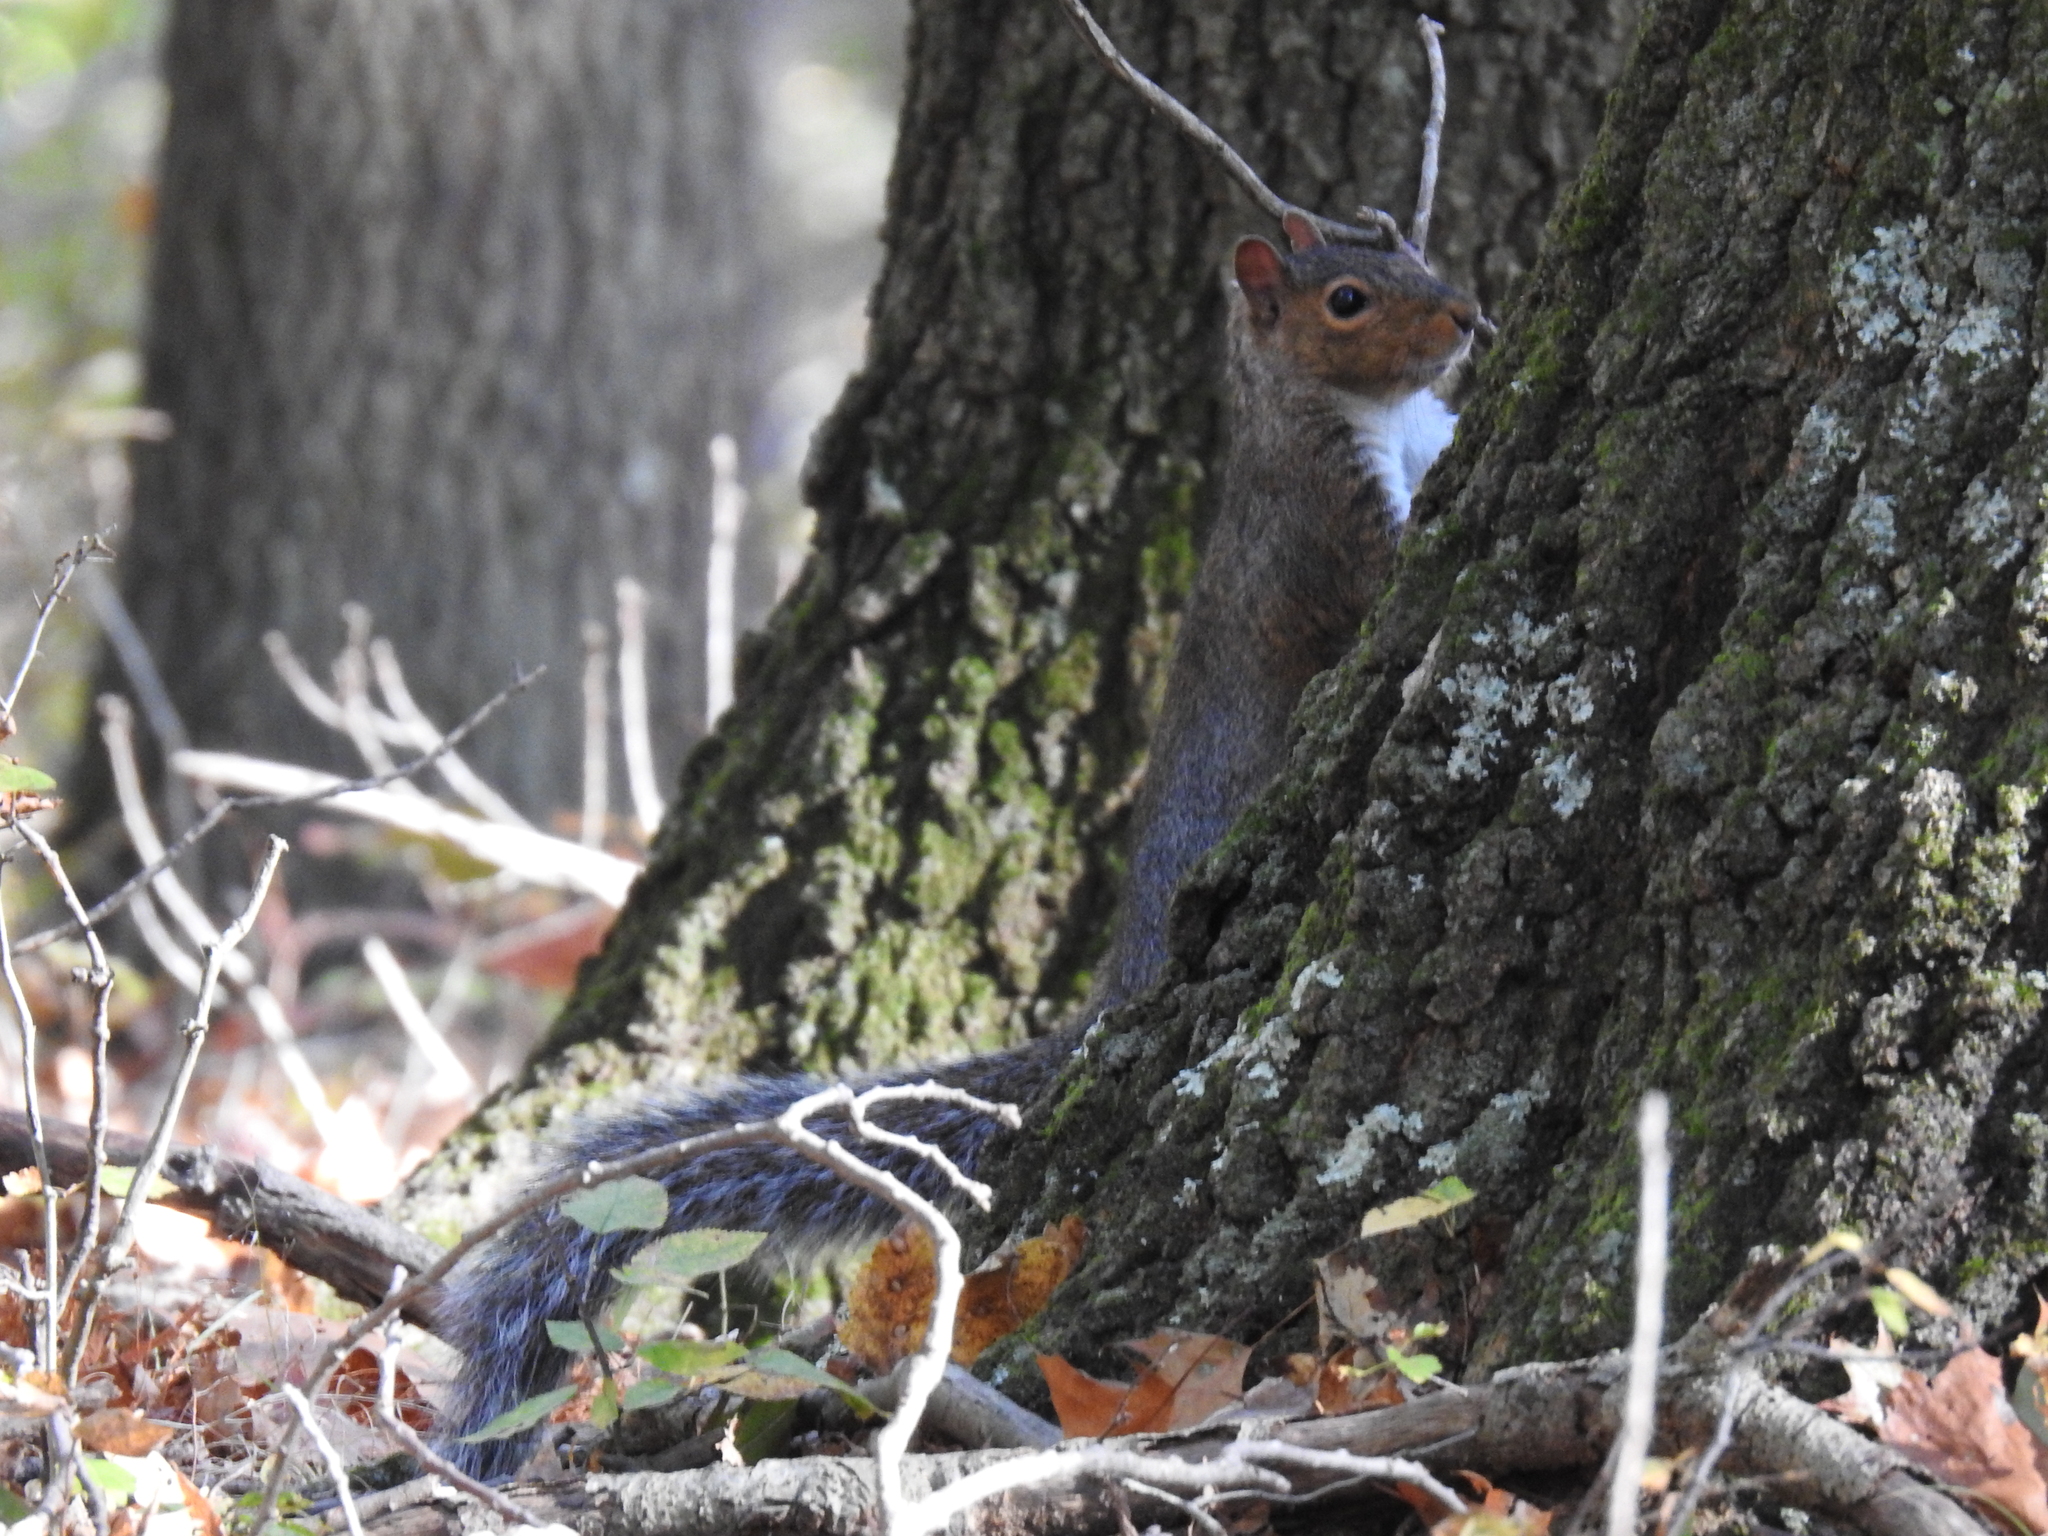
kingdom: Animalia
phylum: Chordata
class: Mammalia
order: Rodentia
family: Sciuridae
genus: Sciurus
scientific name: Sciurus carolinensis
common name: Eastern gray squirrel
